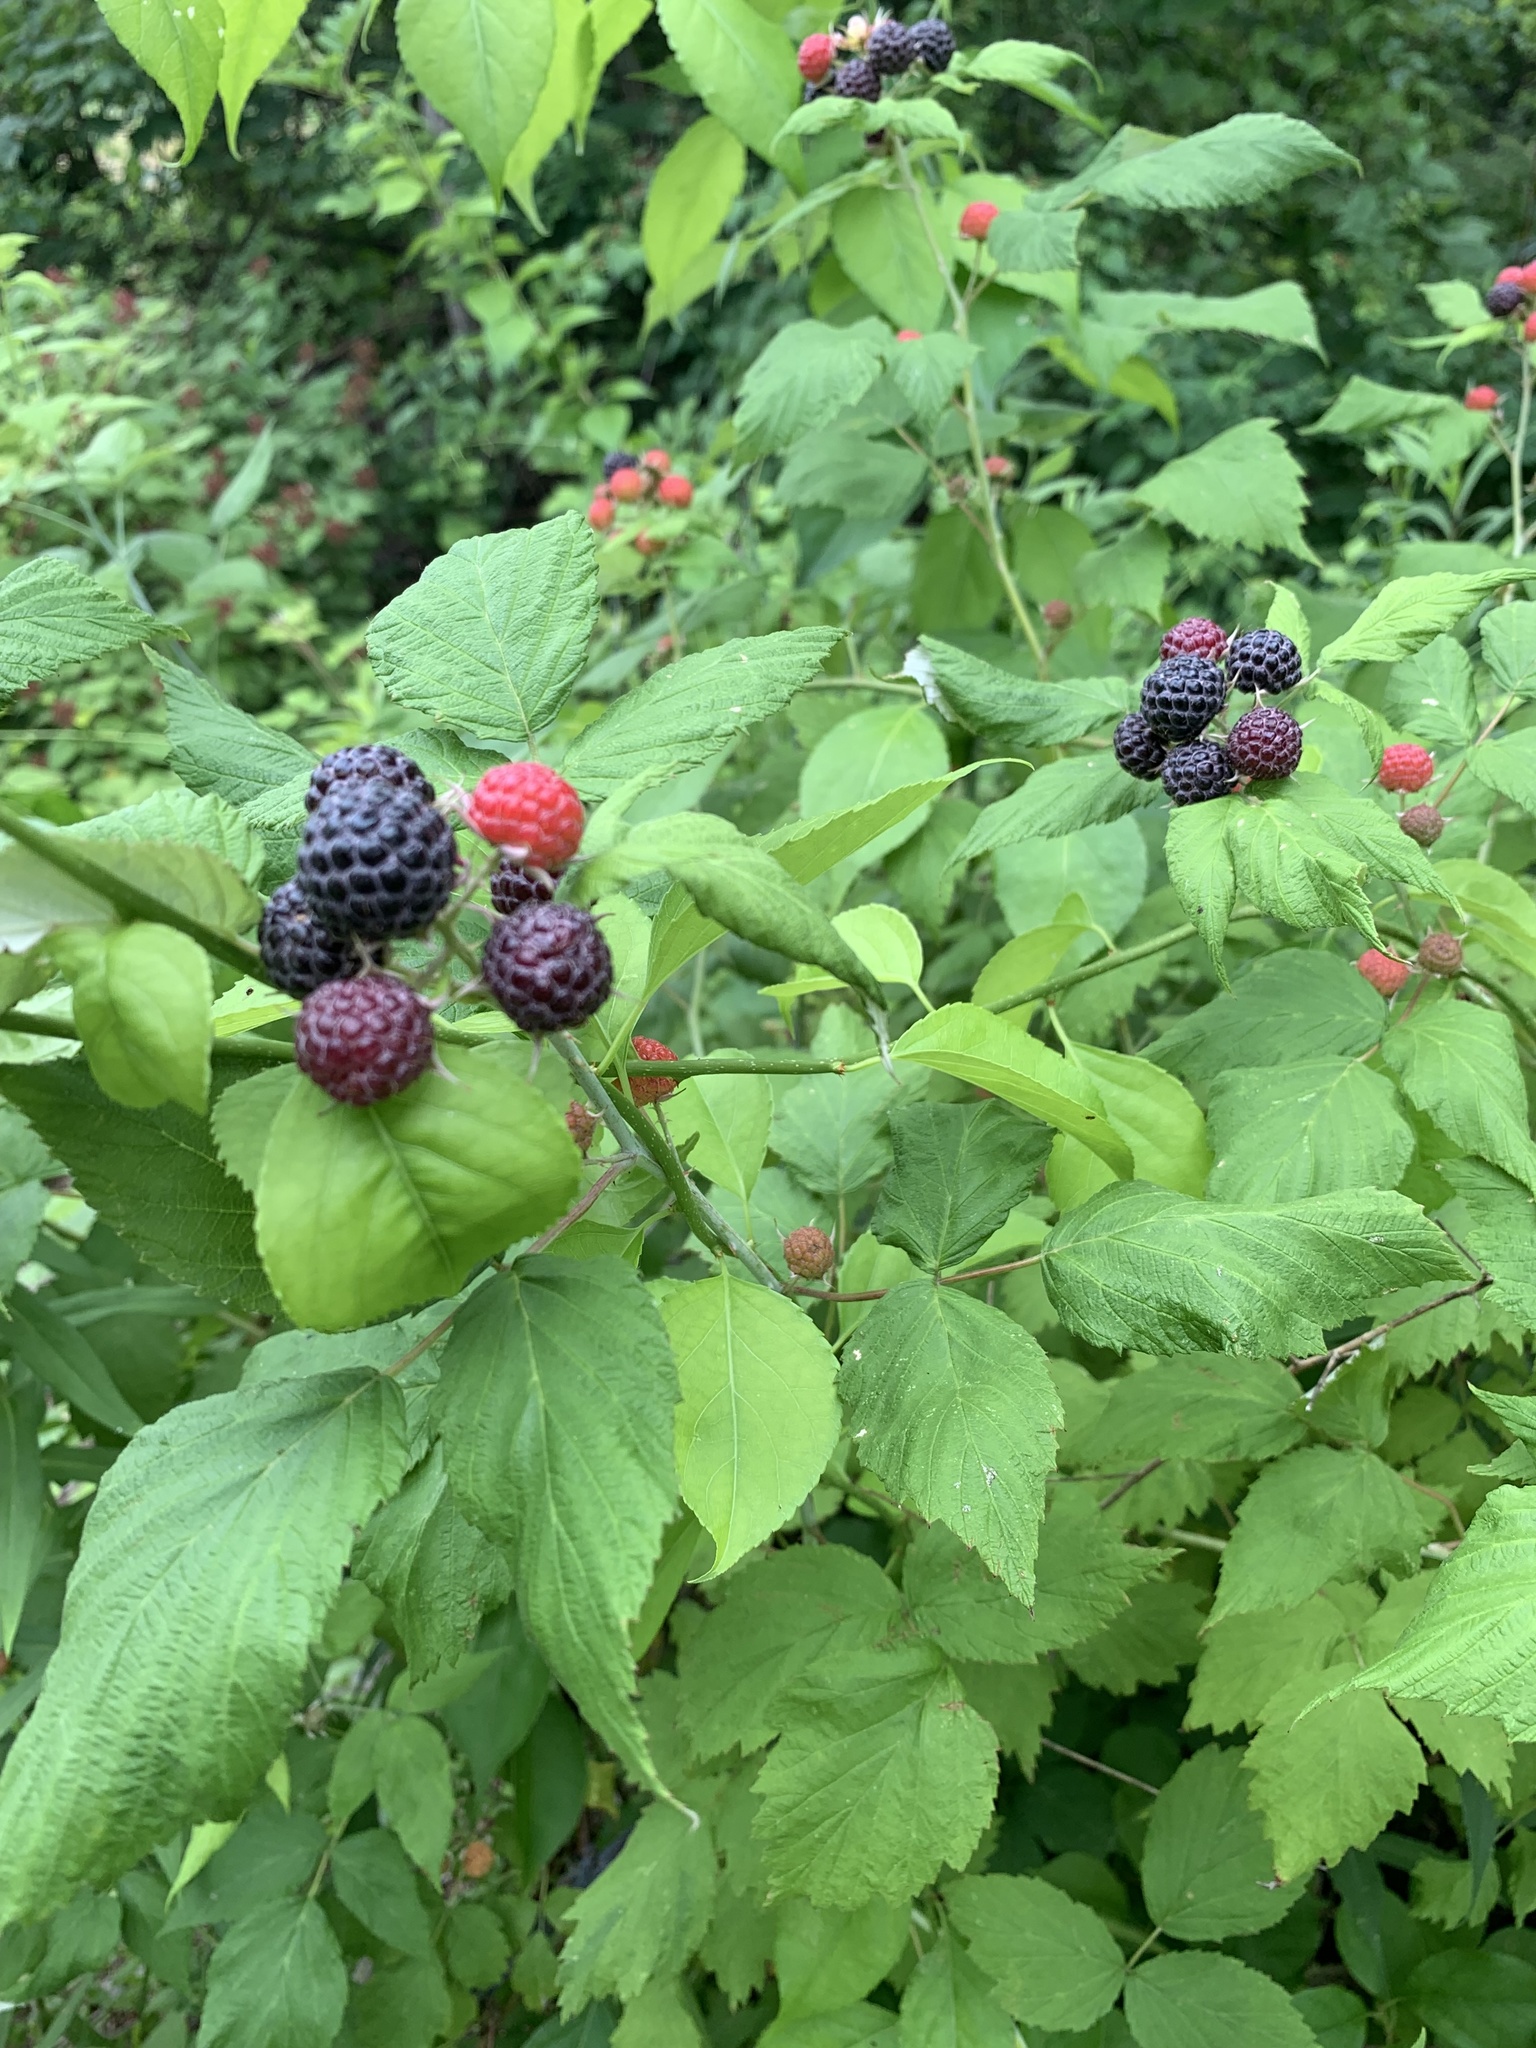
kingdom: Plantae
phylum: Tracheophyta
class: Magnoliopsida
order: Rosales
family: Rosaceae
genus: Rubus
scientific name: Rubus occidentalis
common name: Black raspberry
